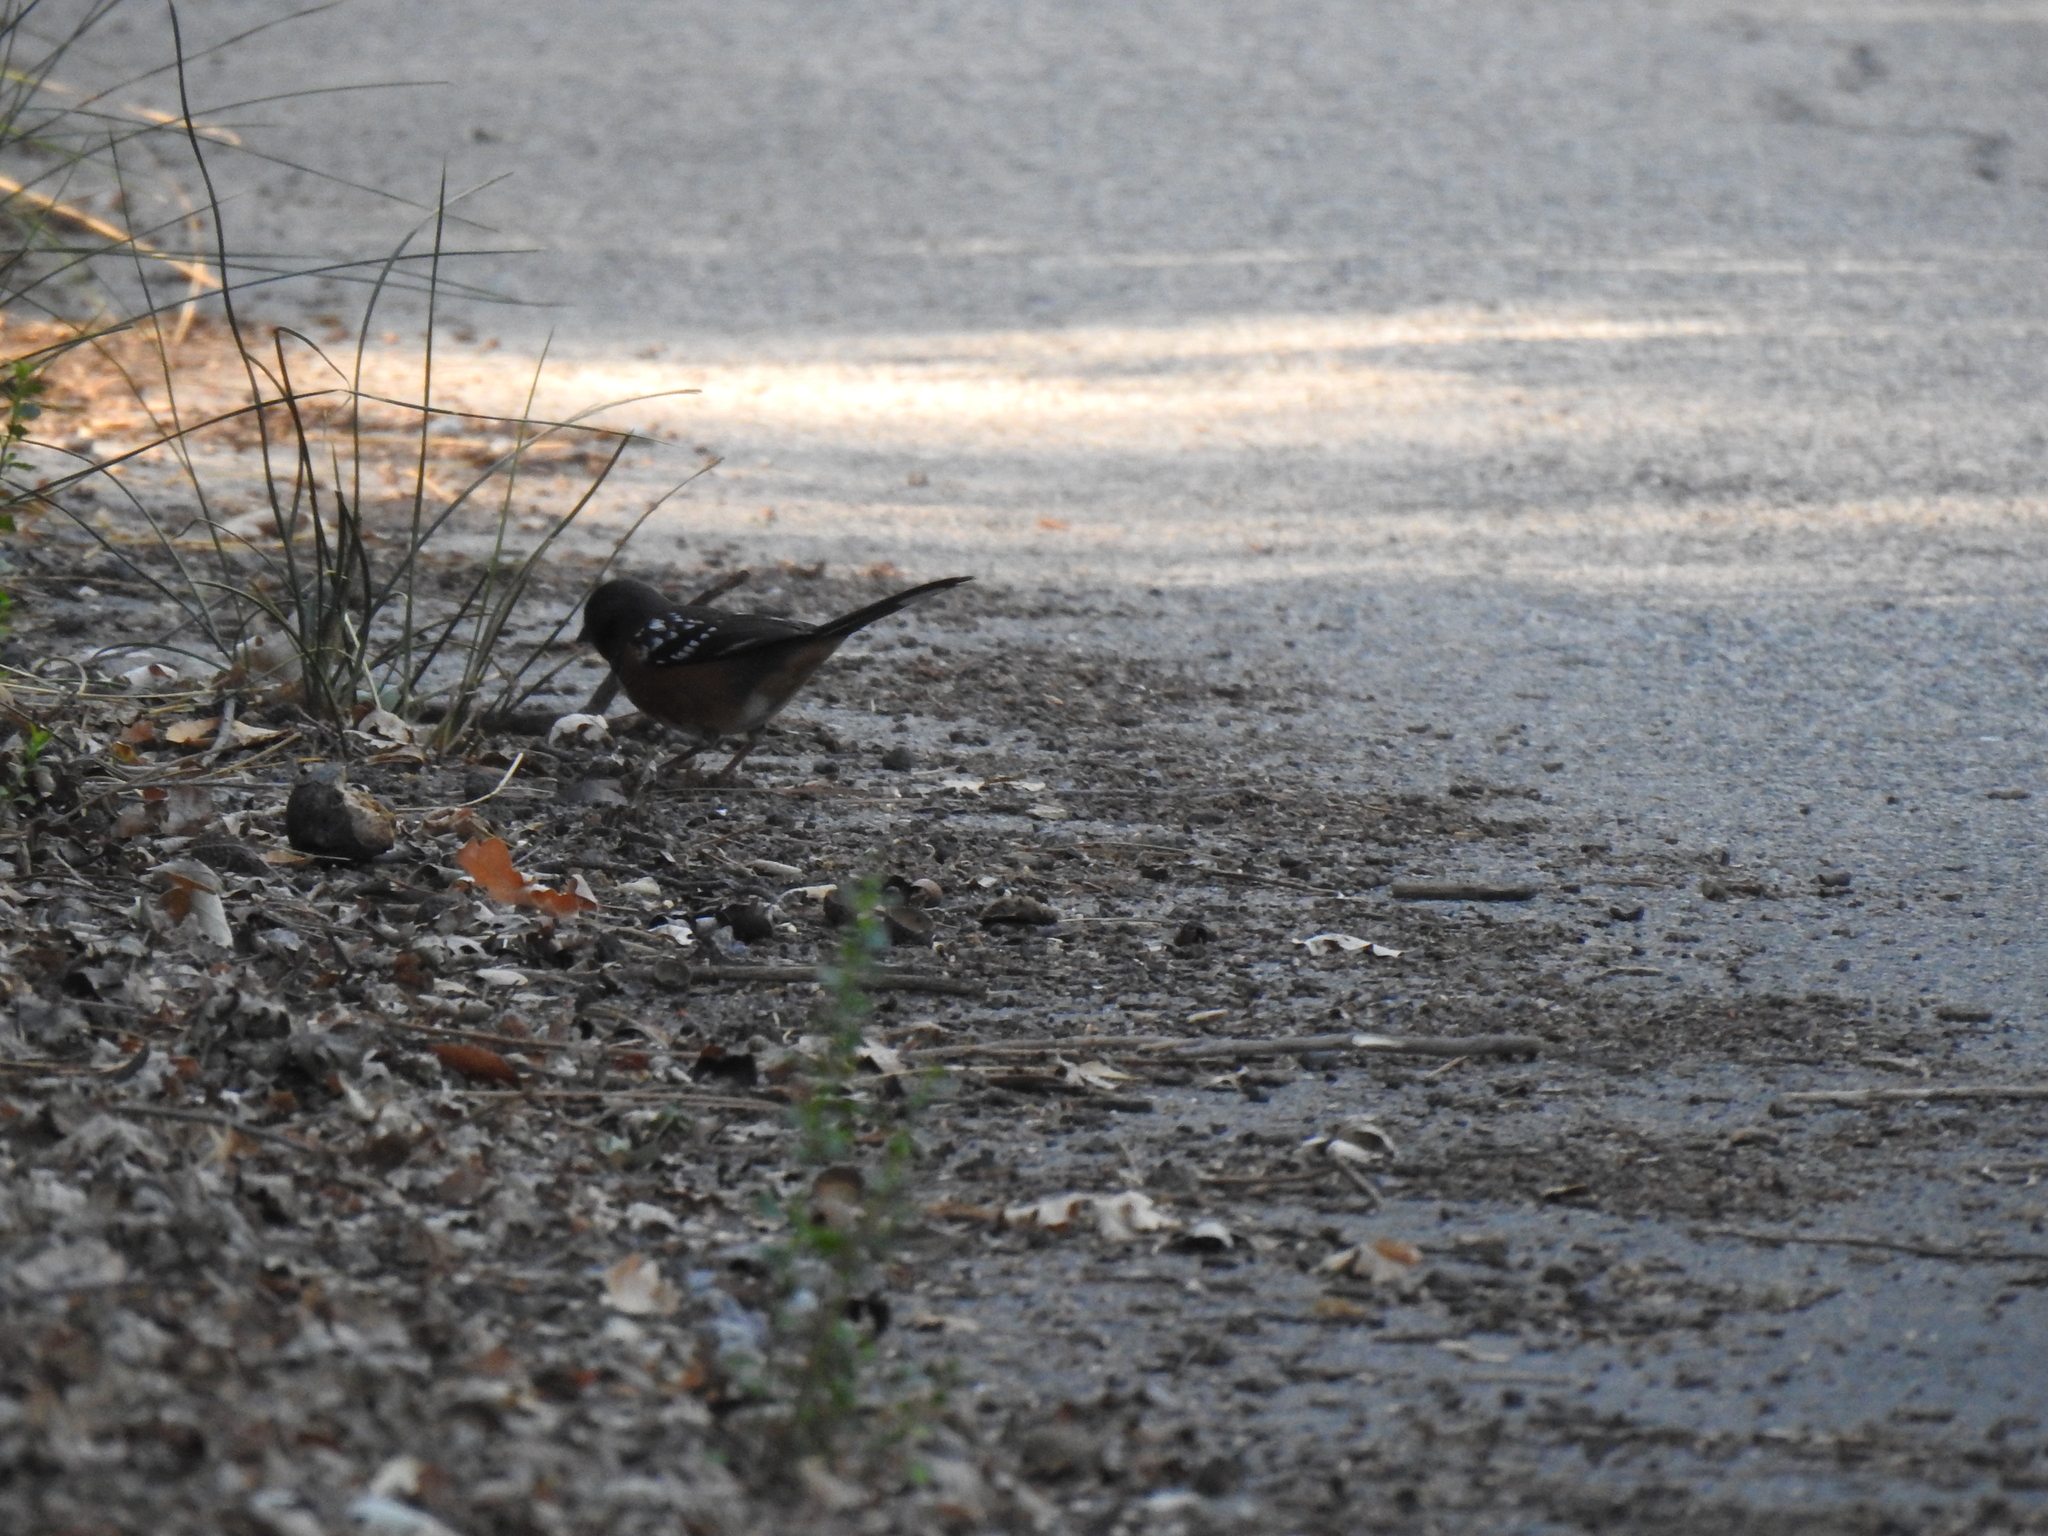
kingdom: Animalia
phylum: Chordata
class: Aves
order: Passeriformes
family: Passerellidae
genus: Pipilo
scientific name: Pipilo maculatus
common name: Spotted towhee
